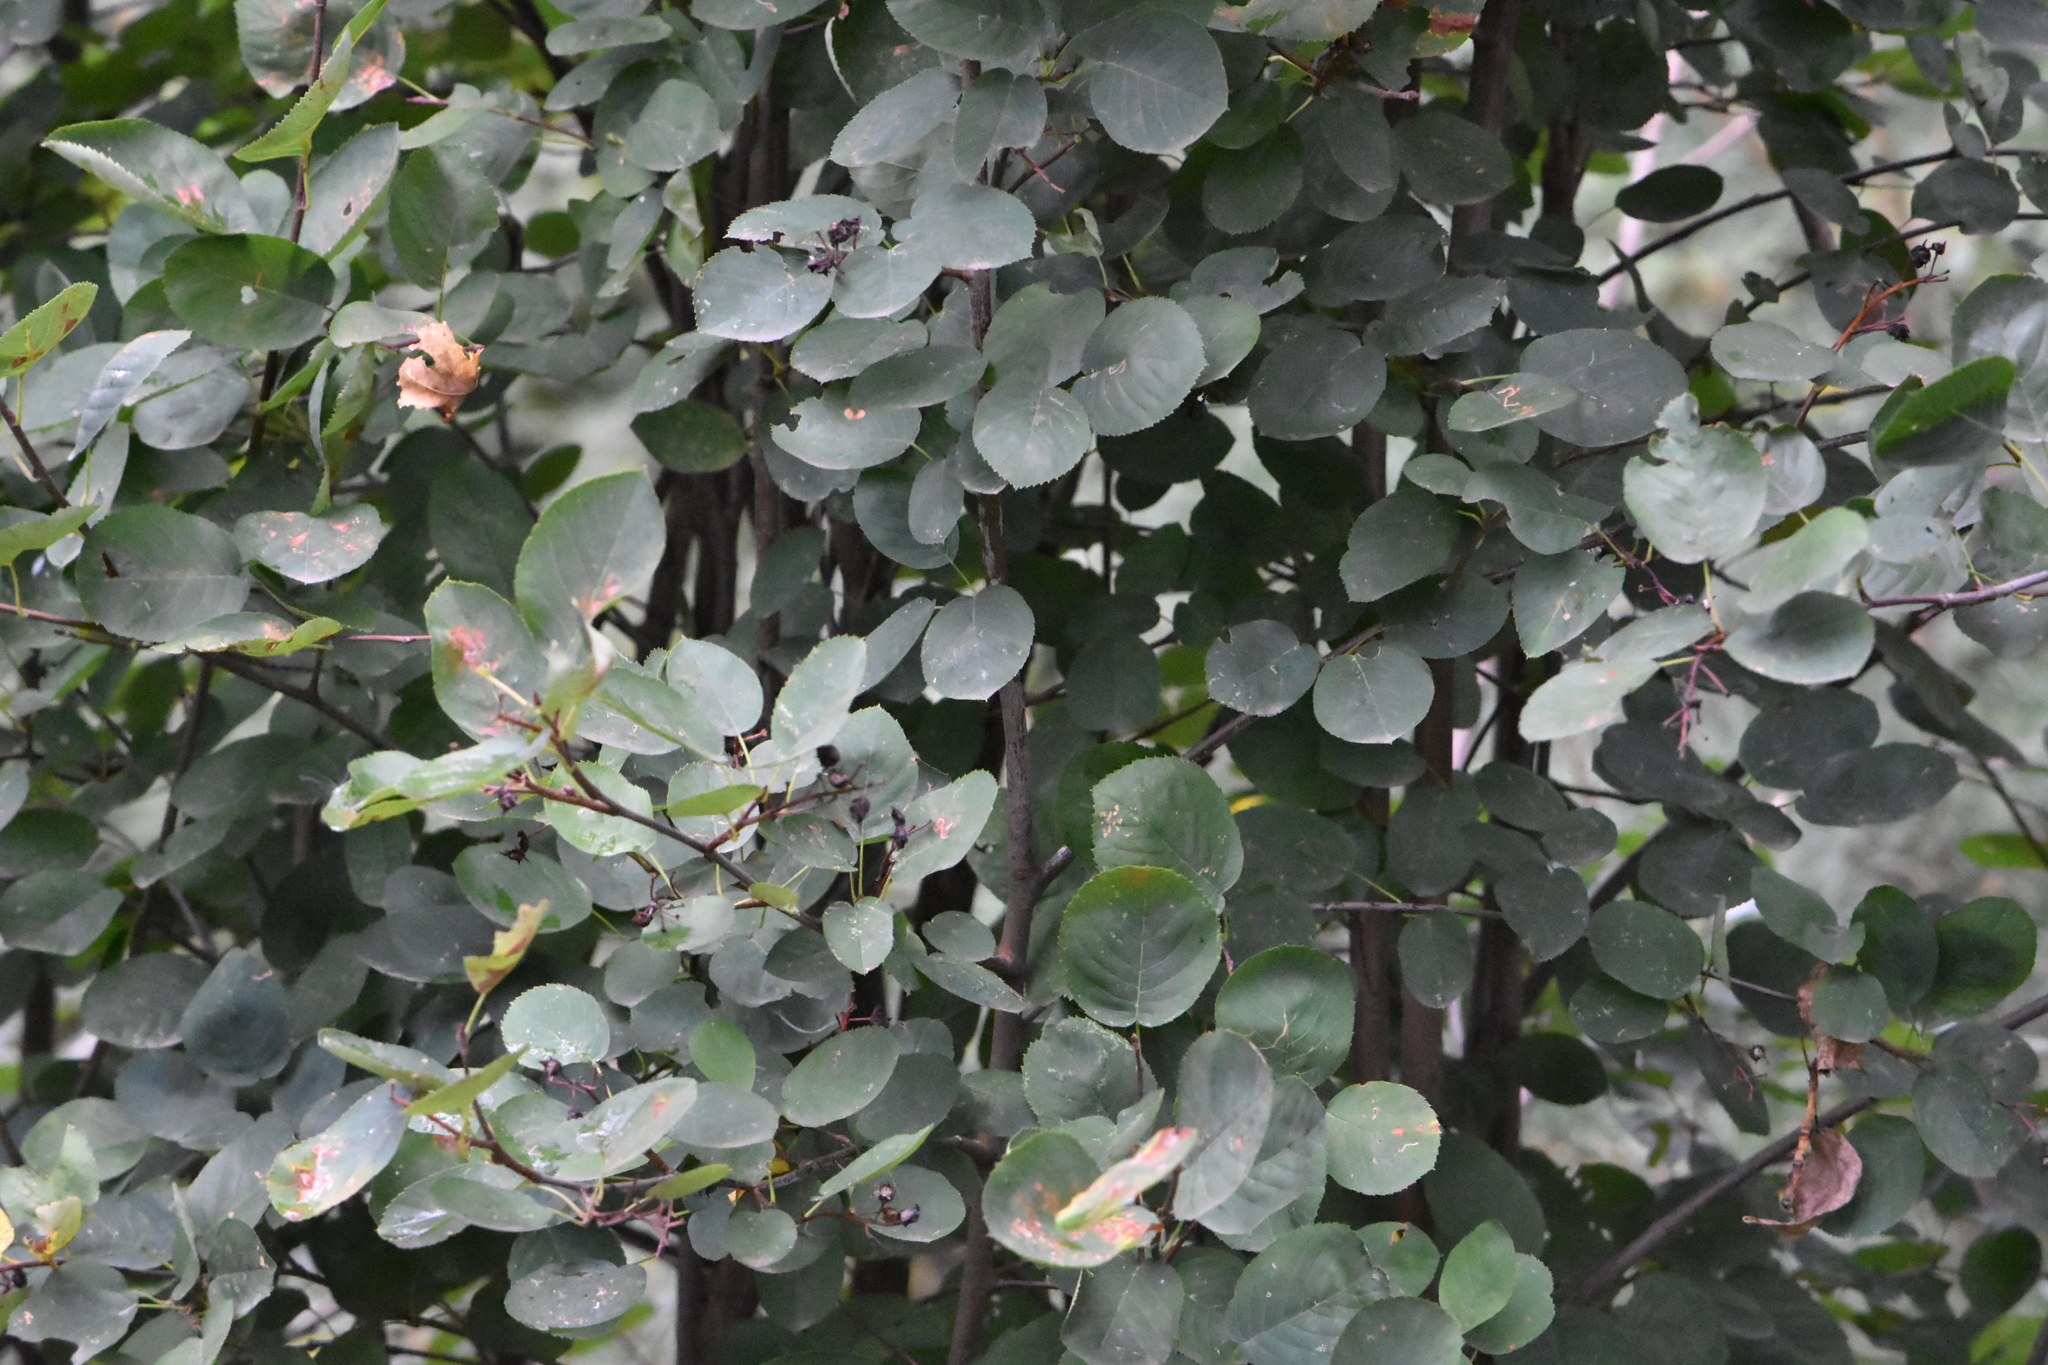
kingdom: Plantae
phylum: Tracheophyta
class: Magnoliopsida
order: Rosales
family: Rosaceae
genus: Amelanchier
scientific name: Amelanchier
